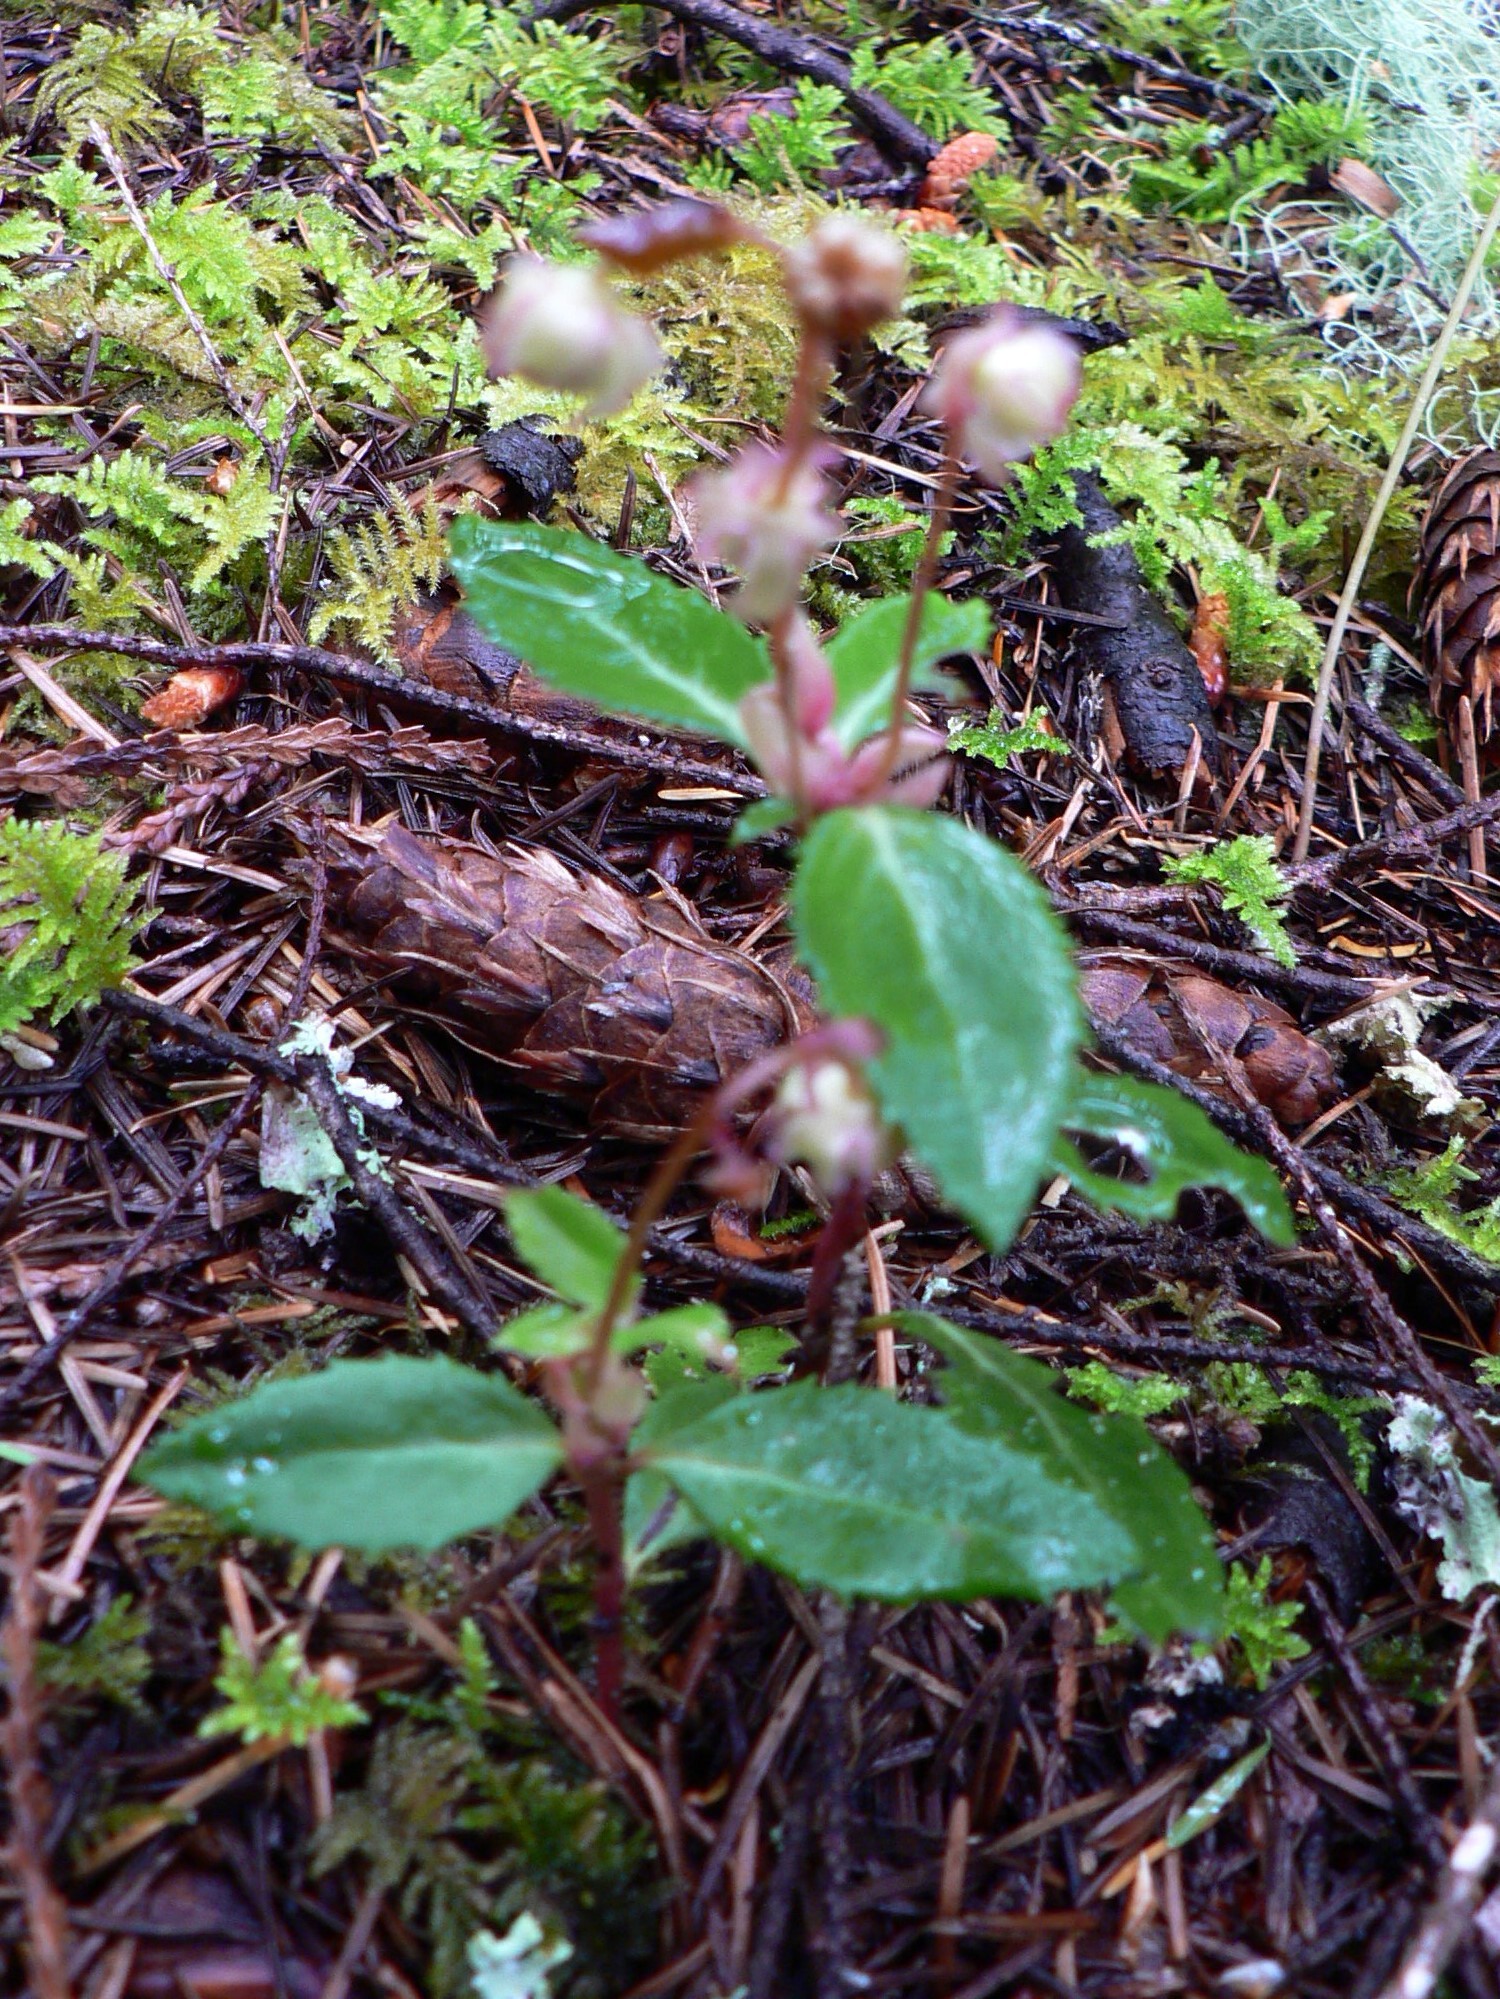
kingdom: Plantae
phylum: Tracheophyta
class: Magnoliopsida
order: Ericales
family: Ericaceae
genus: Chimaphila
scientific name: Chimaphila menziesii
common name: Menzies' pipsissewa
